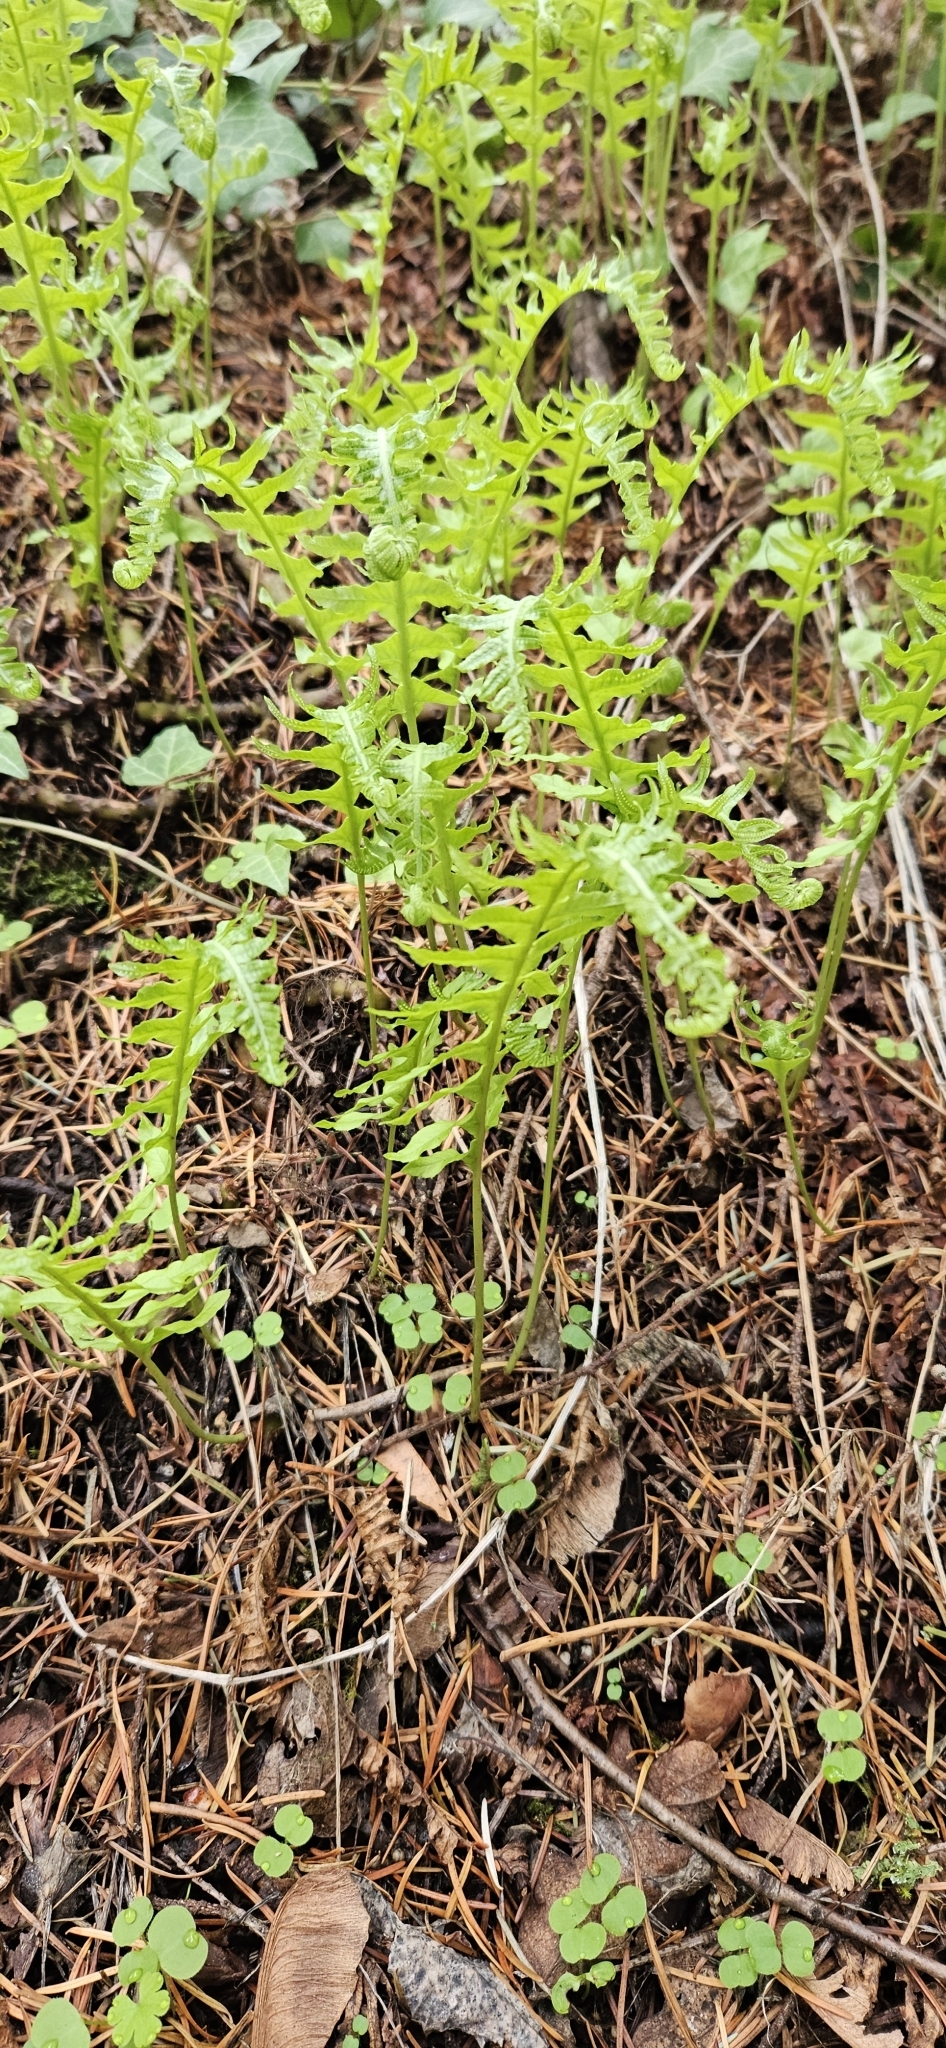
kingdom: Plantae
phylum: Tracheophyta
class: Polypodiopsida
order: Polypodiales
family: Polypodiaceae
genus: Polypodium
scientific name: Polypodium glycyrrhiza
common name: Licorice fern
